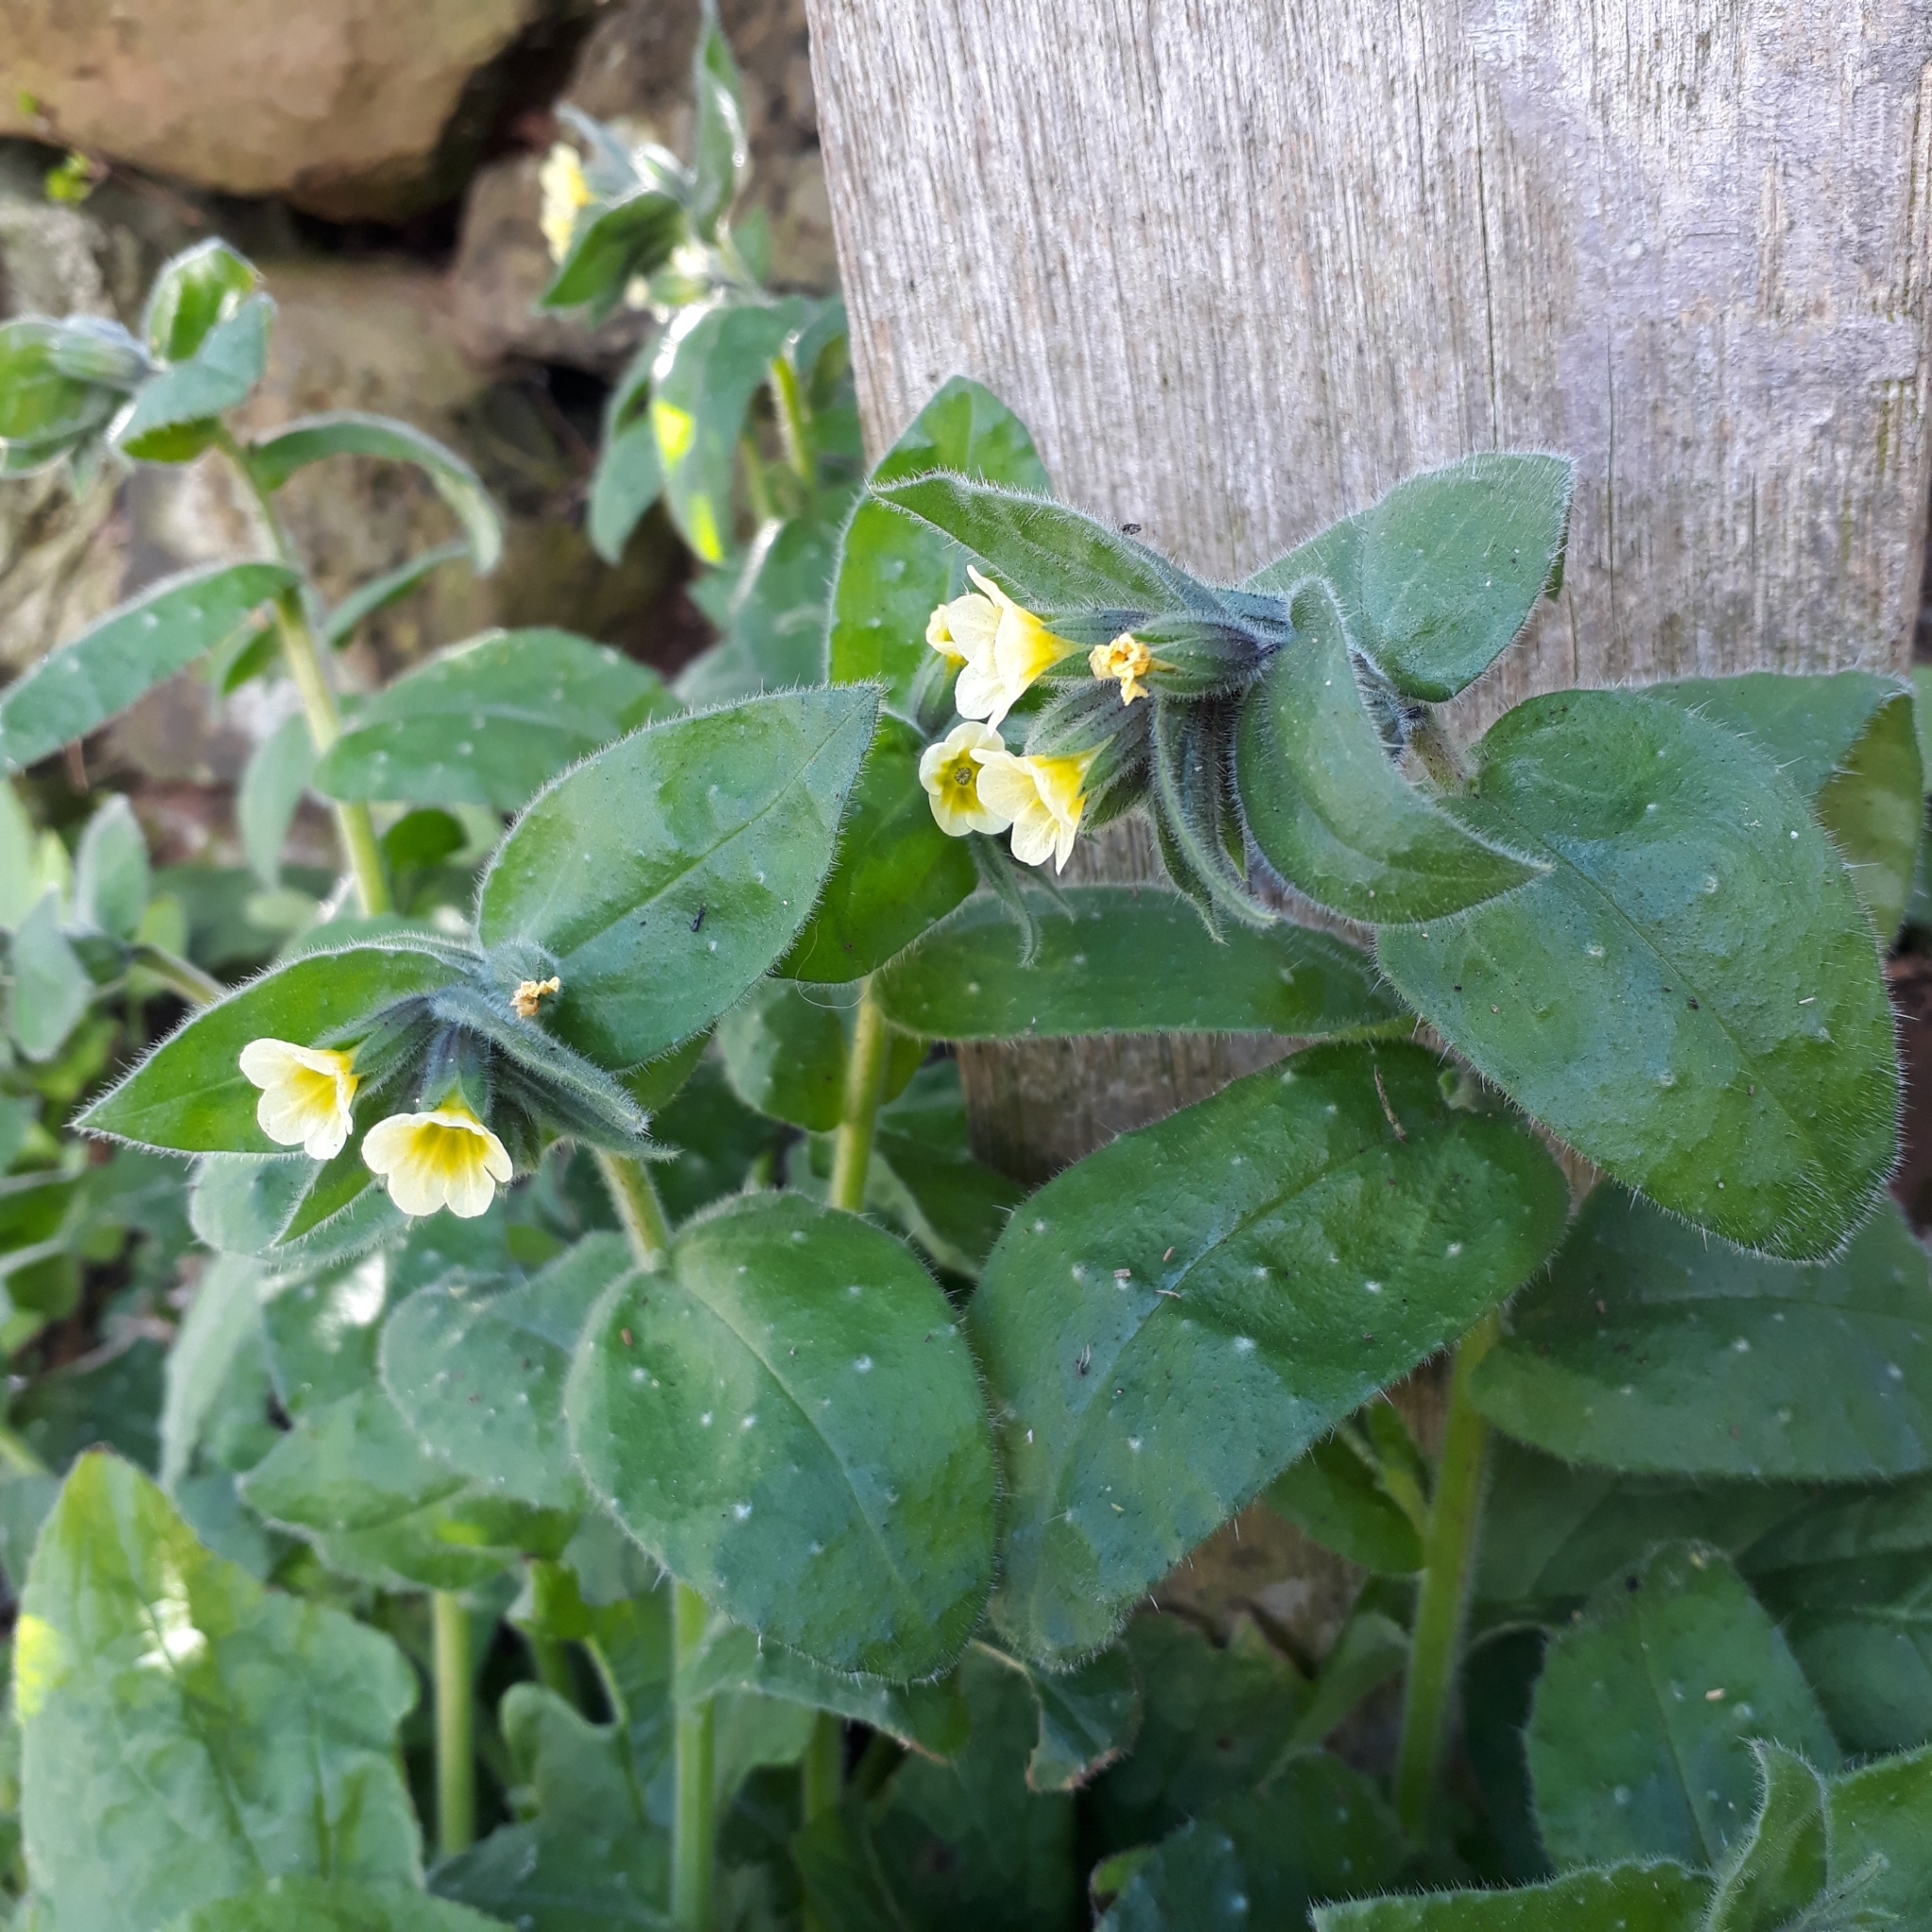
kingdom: Plantae
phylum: Tracheophyta
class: Magnoliopsida
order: Boraginales
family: Boraginaceae
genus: Nonea
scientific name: Nonea lutea
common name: Yellow nonea
